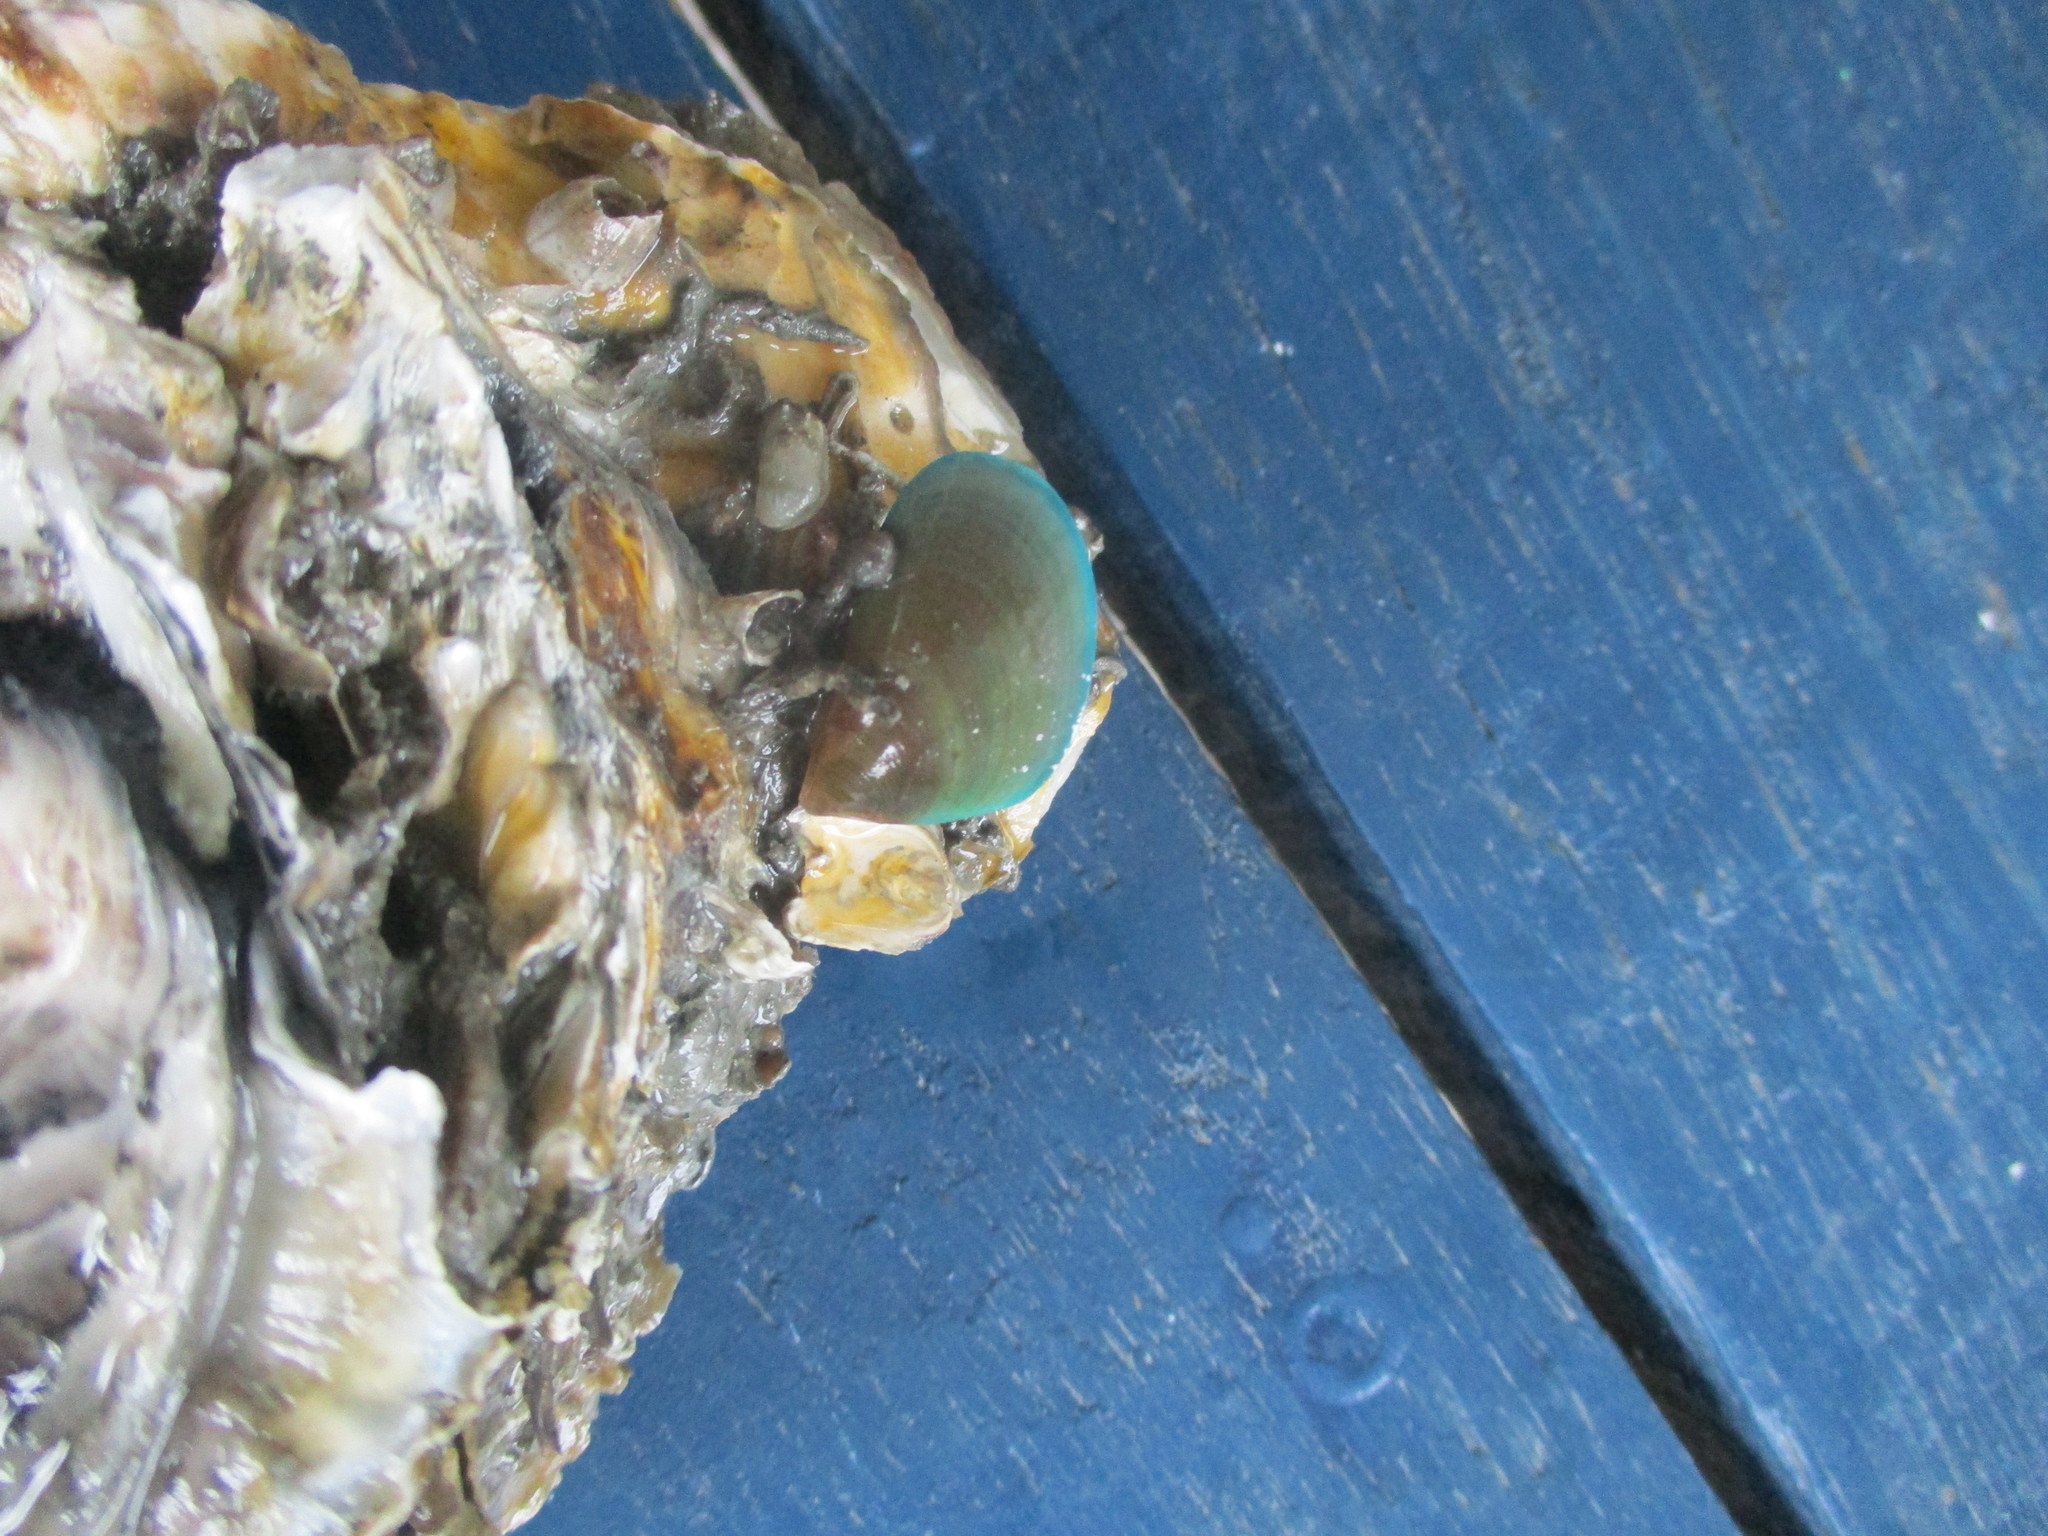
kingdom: Animalia
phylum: Mollusca
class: Bivalvia
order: Mytilida
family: Mytilidae
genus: Perna
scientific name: Perna viridis
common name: Green mussel
